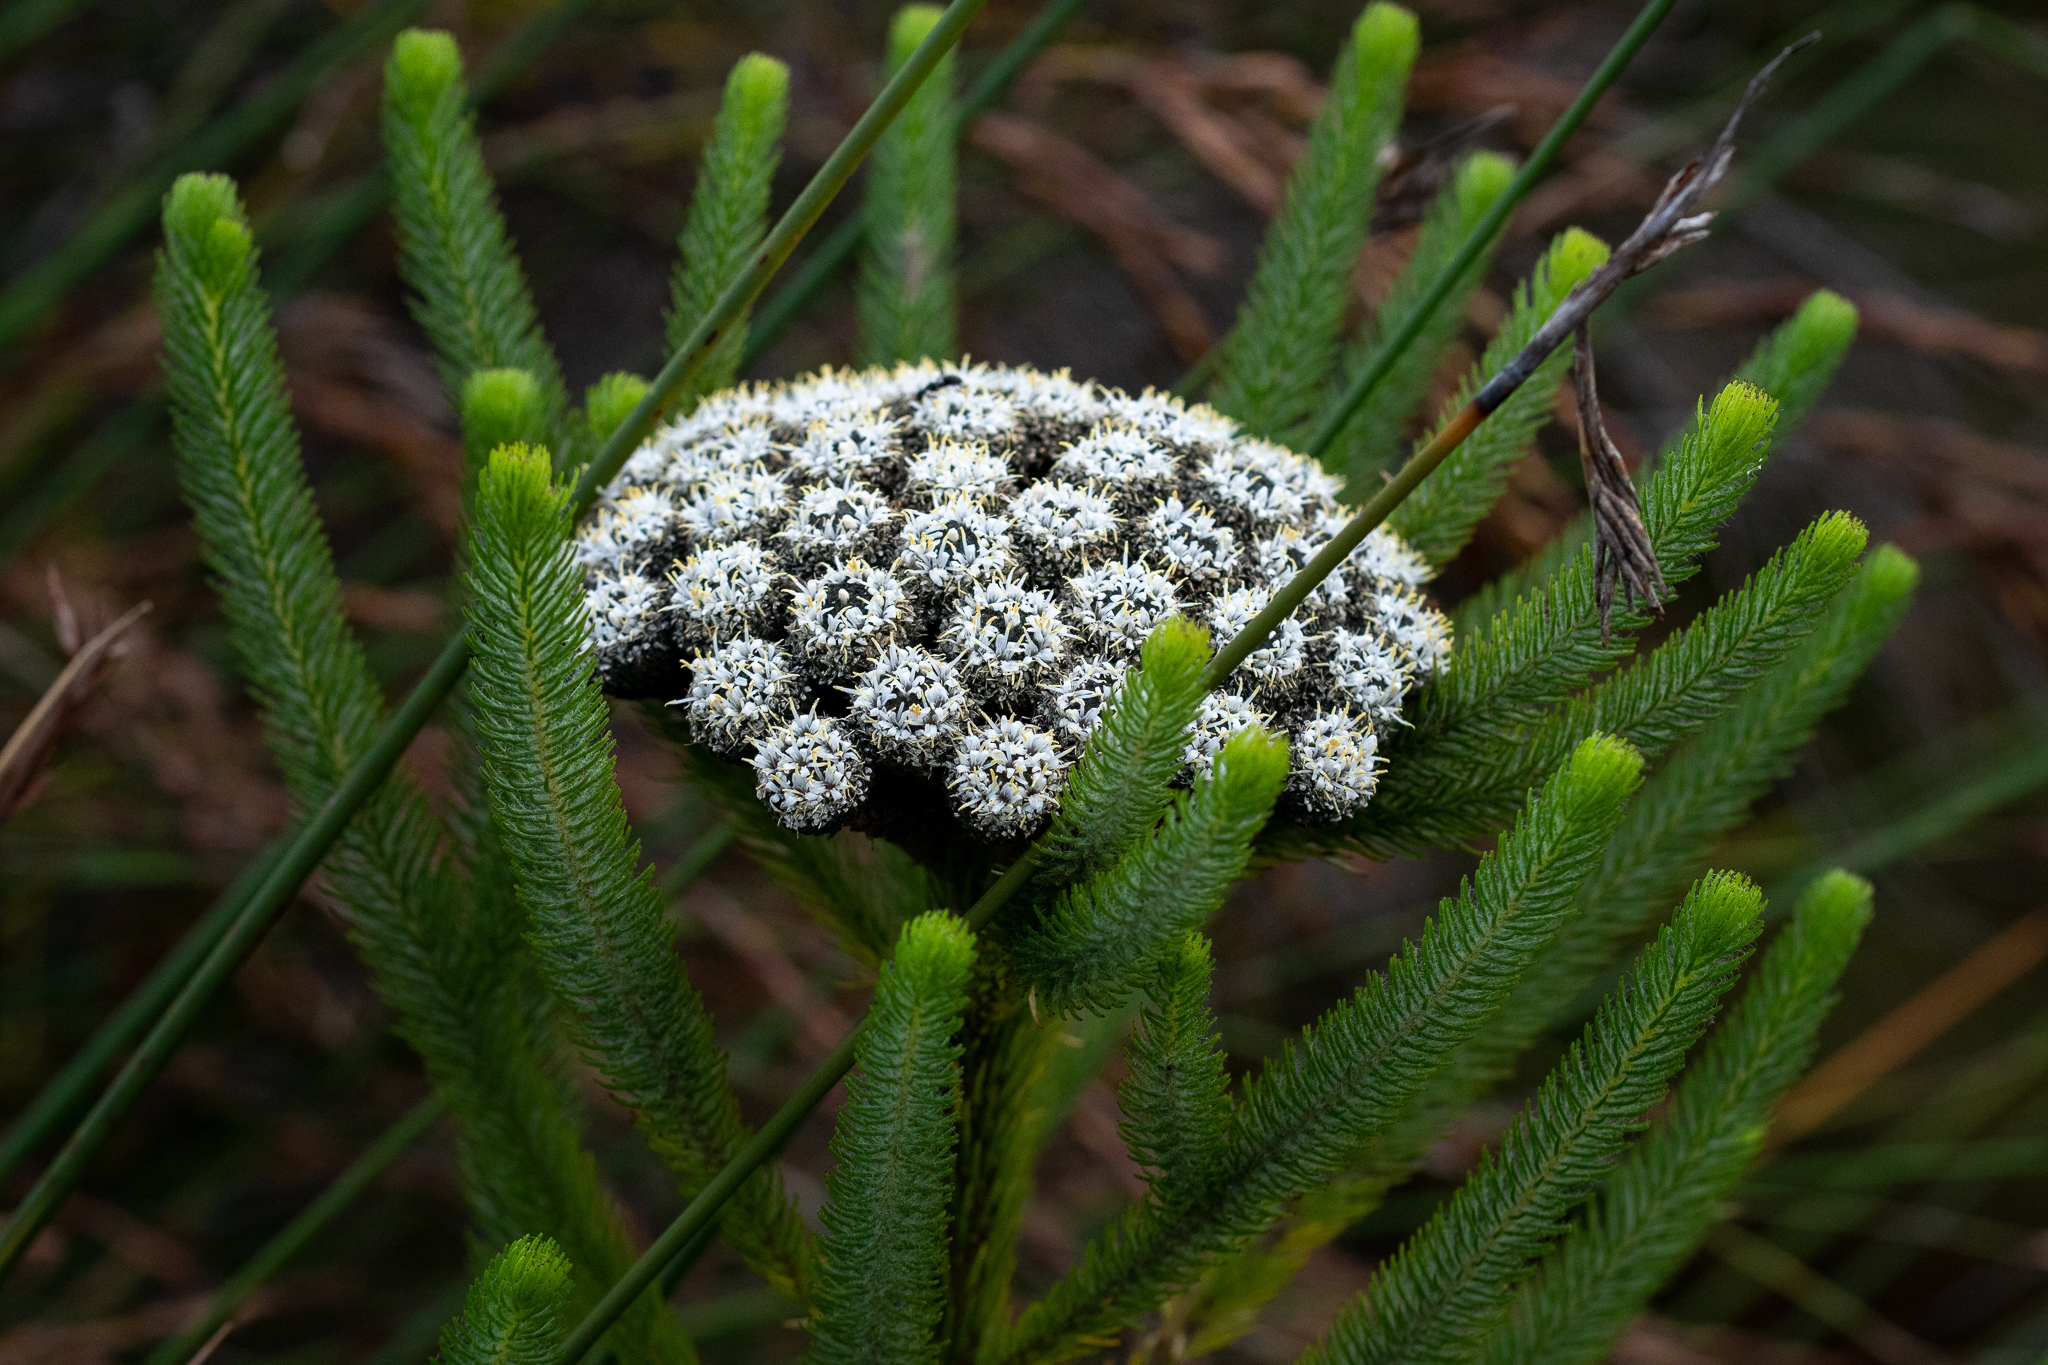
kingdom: Plantae
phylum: Tracheophyta
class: Magnoliopsida
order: Bruniales
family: Bruniaceae
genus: Berzelia
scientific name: Berzelia albiflora
